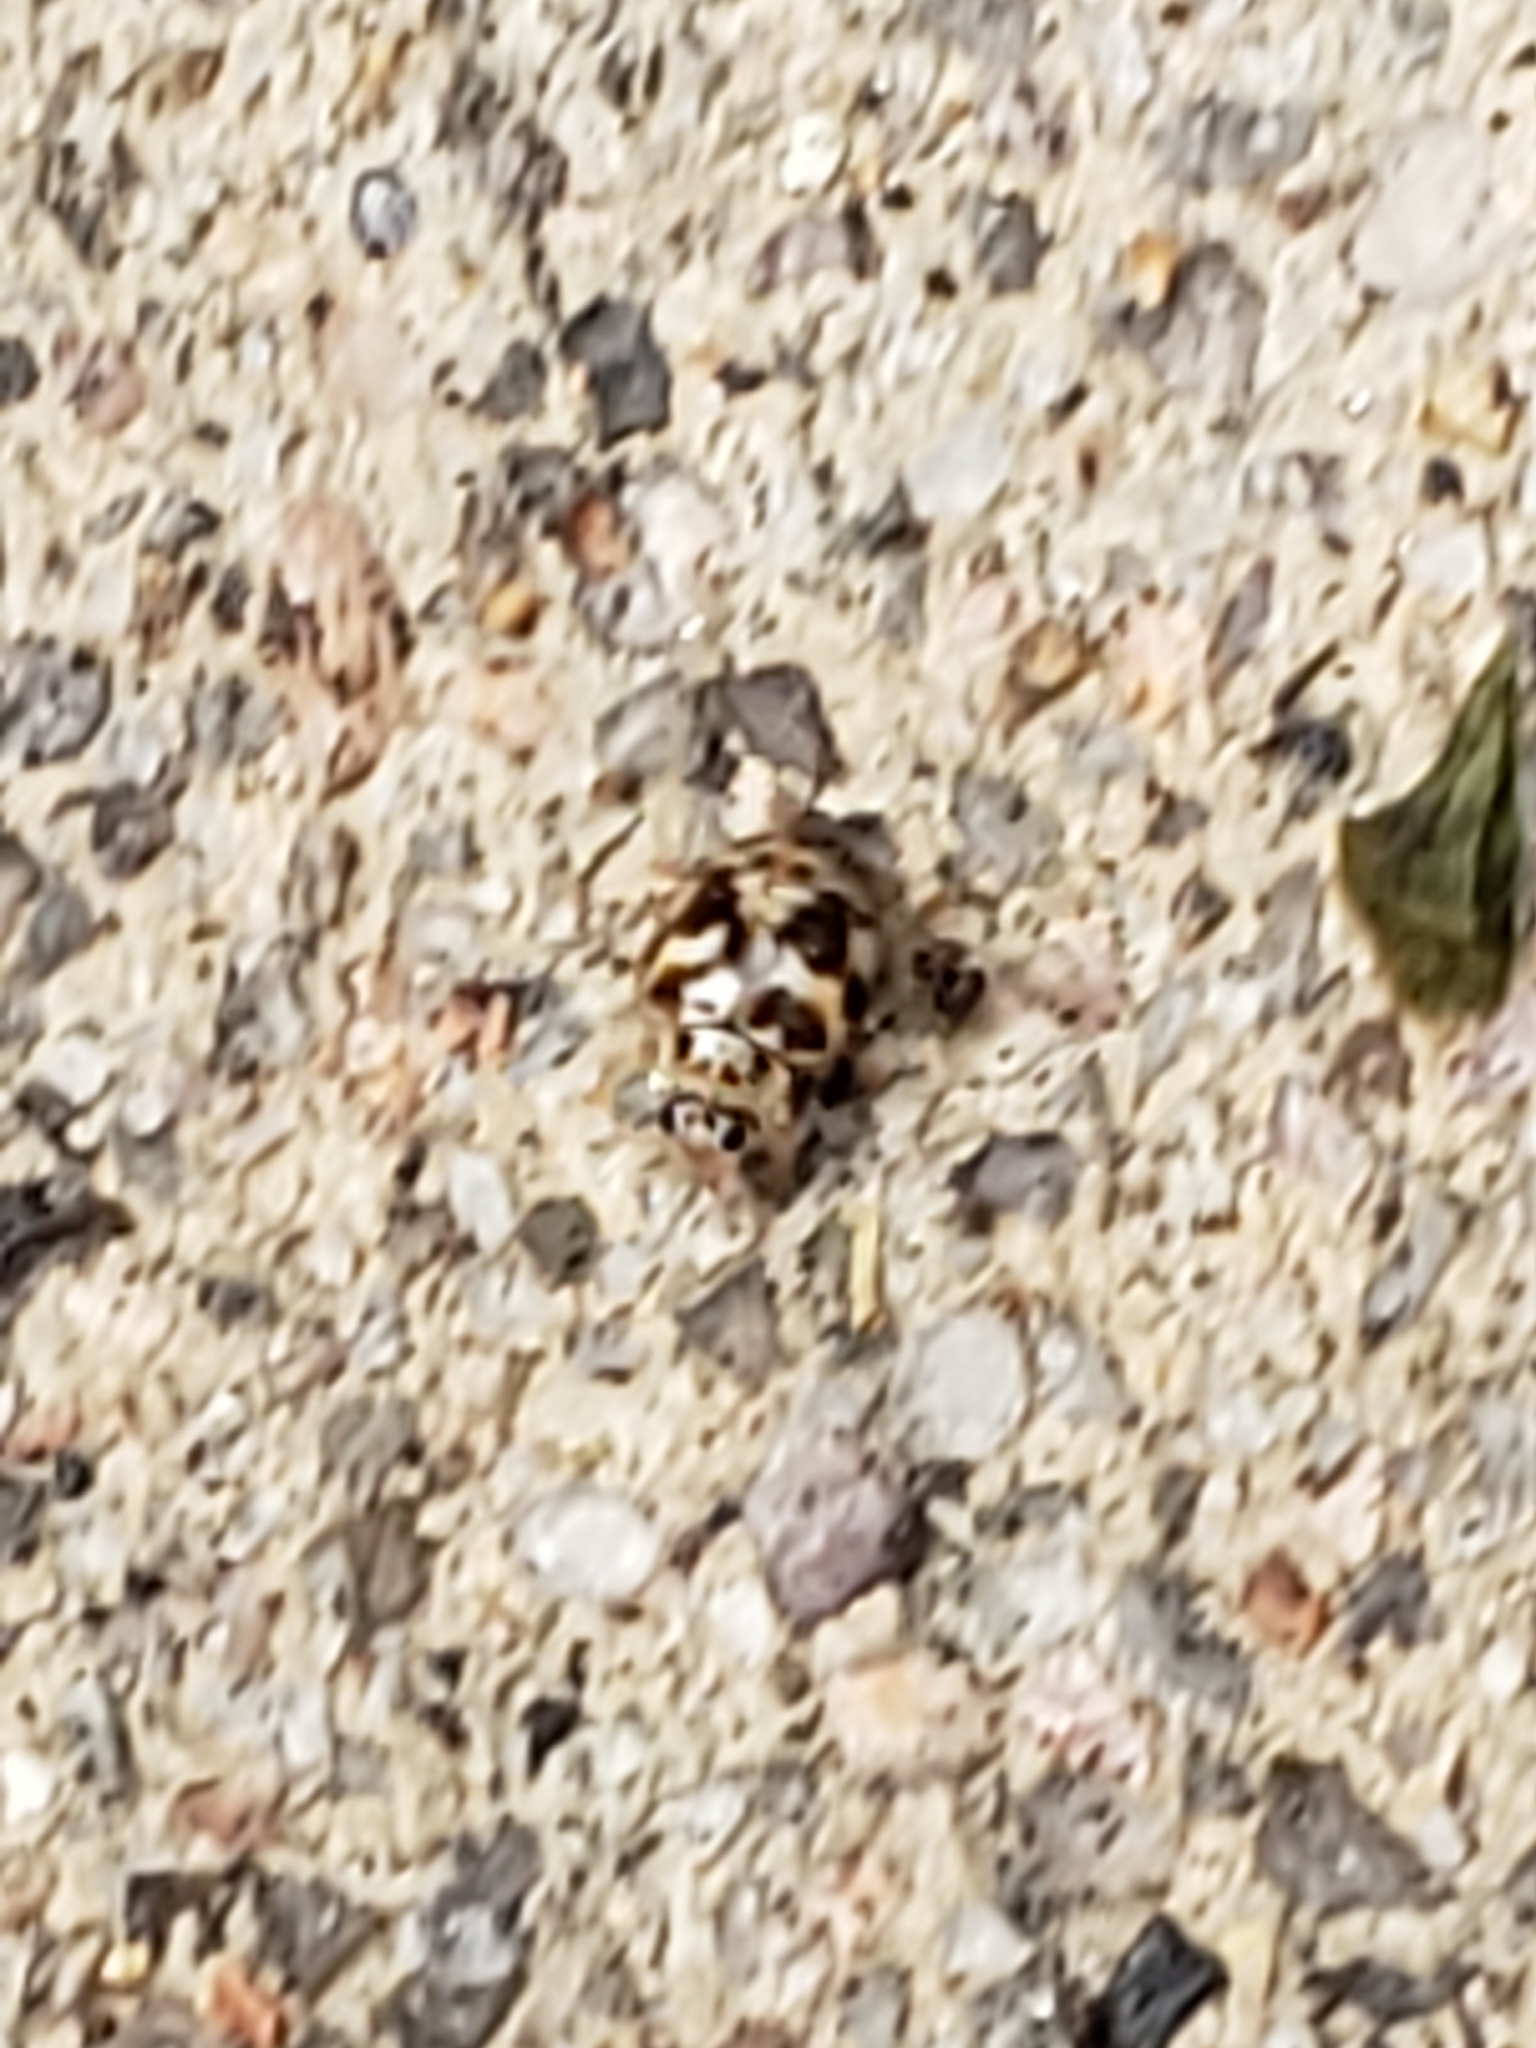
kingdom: Animalia
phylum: Arthropoda
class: Insecta
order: Coleoptera
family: Coccinellidae
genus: Psyllobora
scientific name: Psyllobora vigintimaculata
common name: Ladybird beetle
